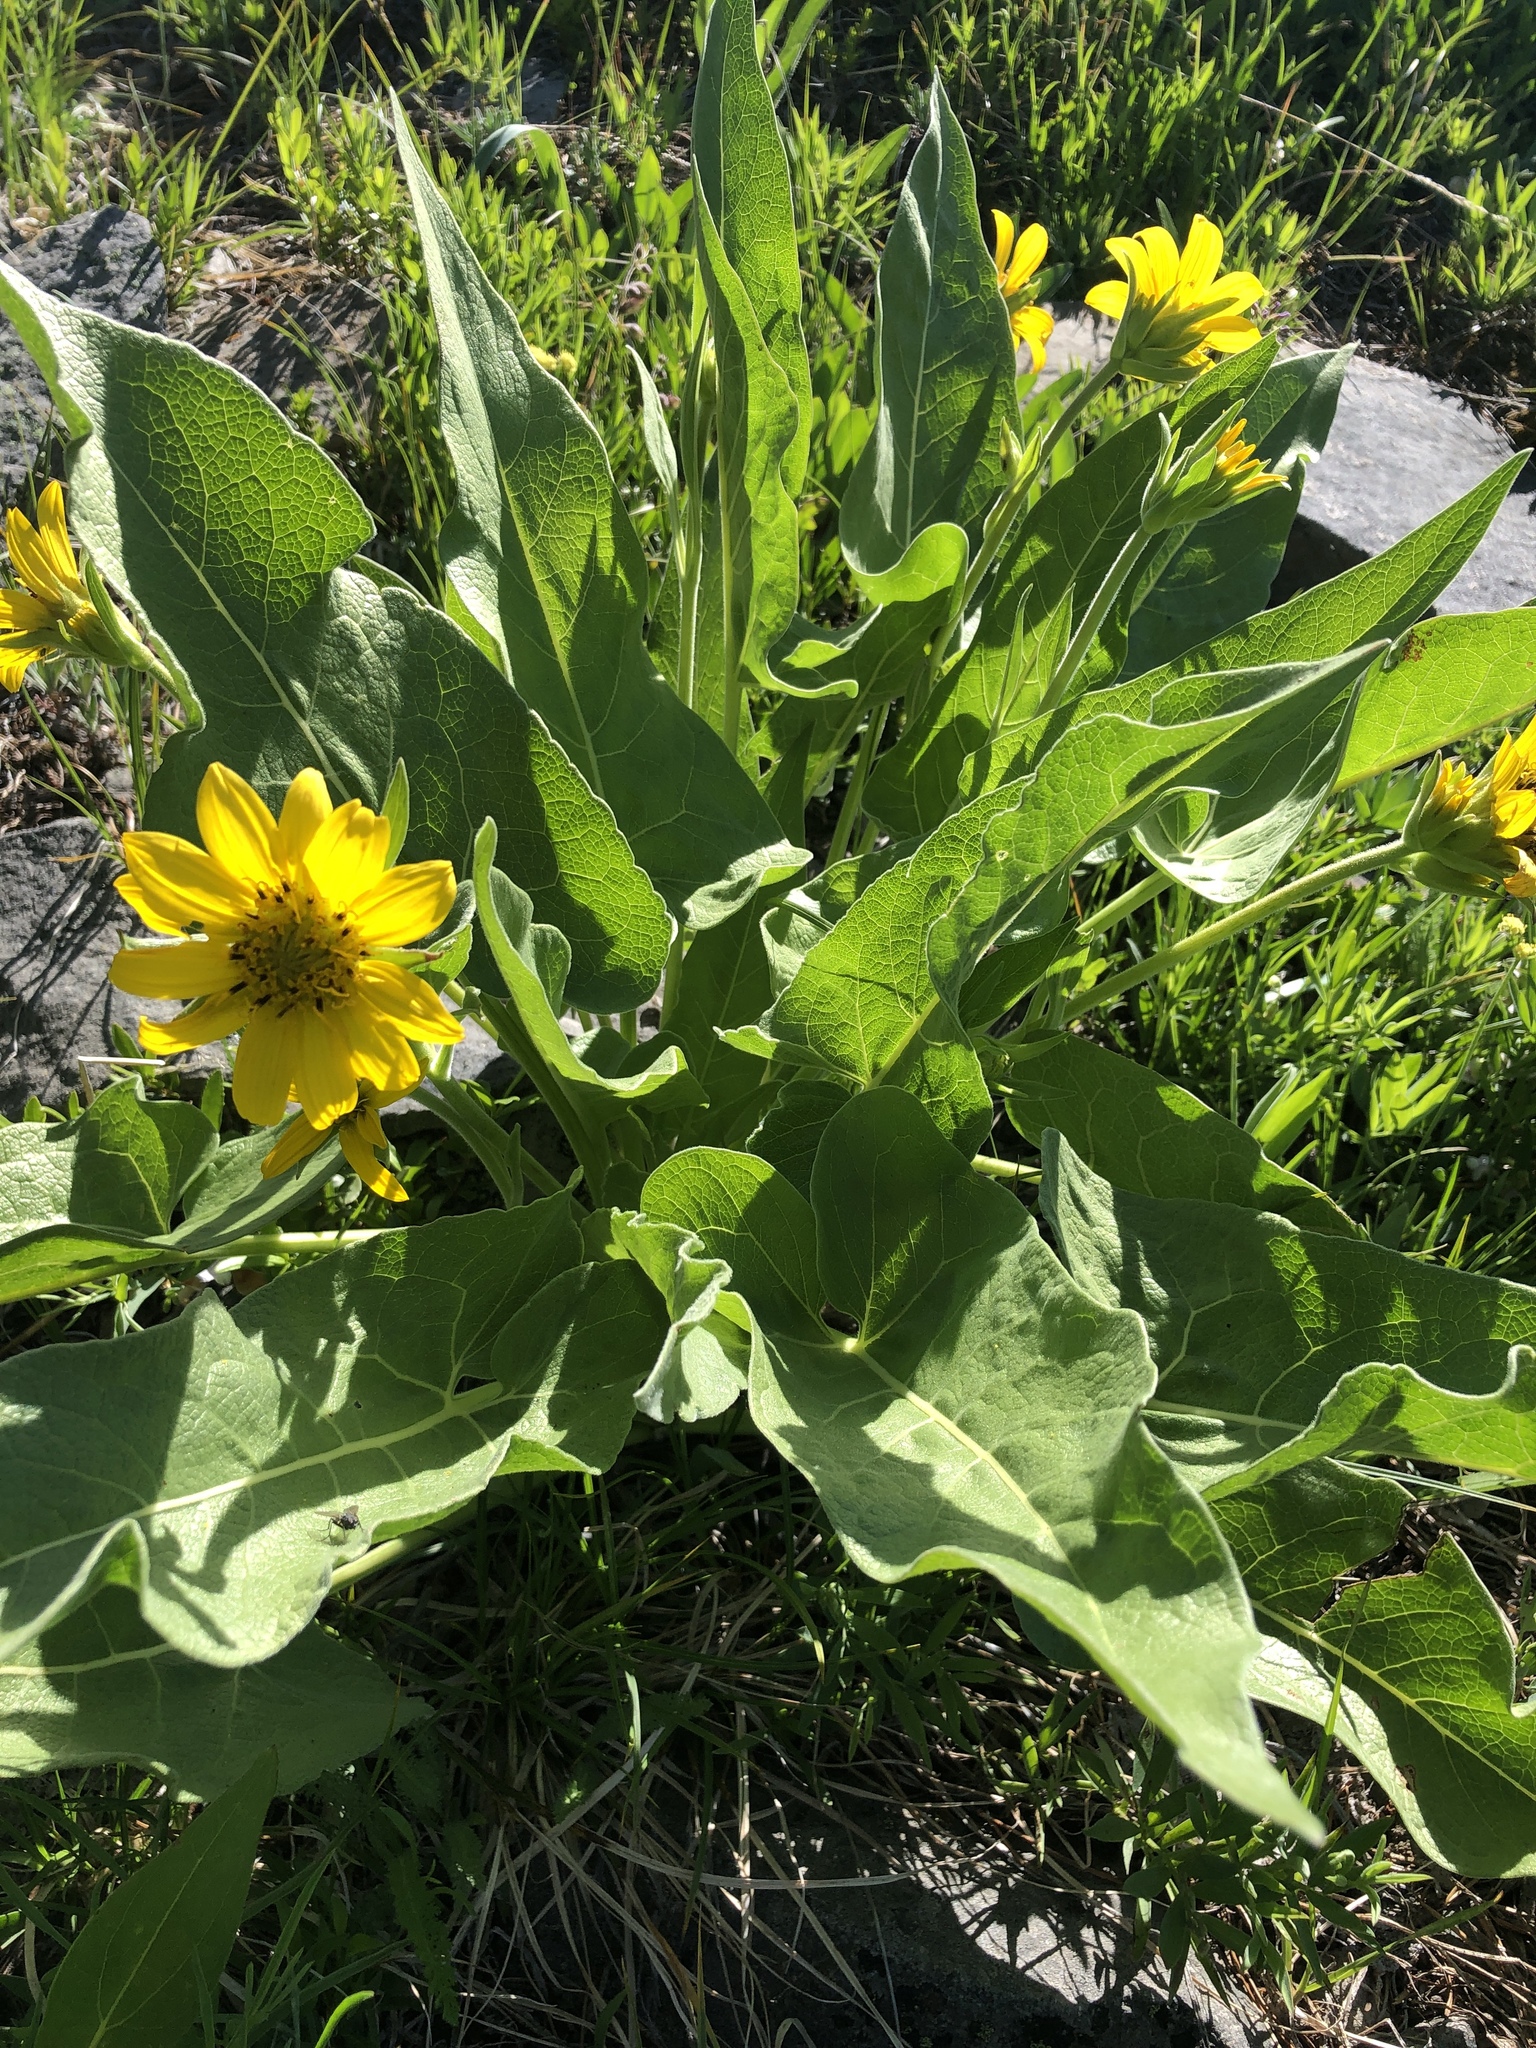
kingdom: Plantae
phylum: Tracheophyta
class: Magnoliopsida
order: Asterales
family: Asteraceae
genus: Wyethia
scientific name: Wyethia sagittata
